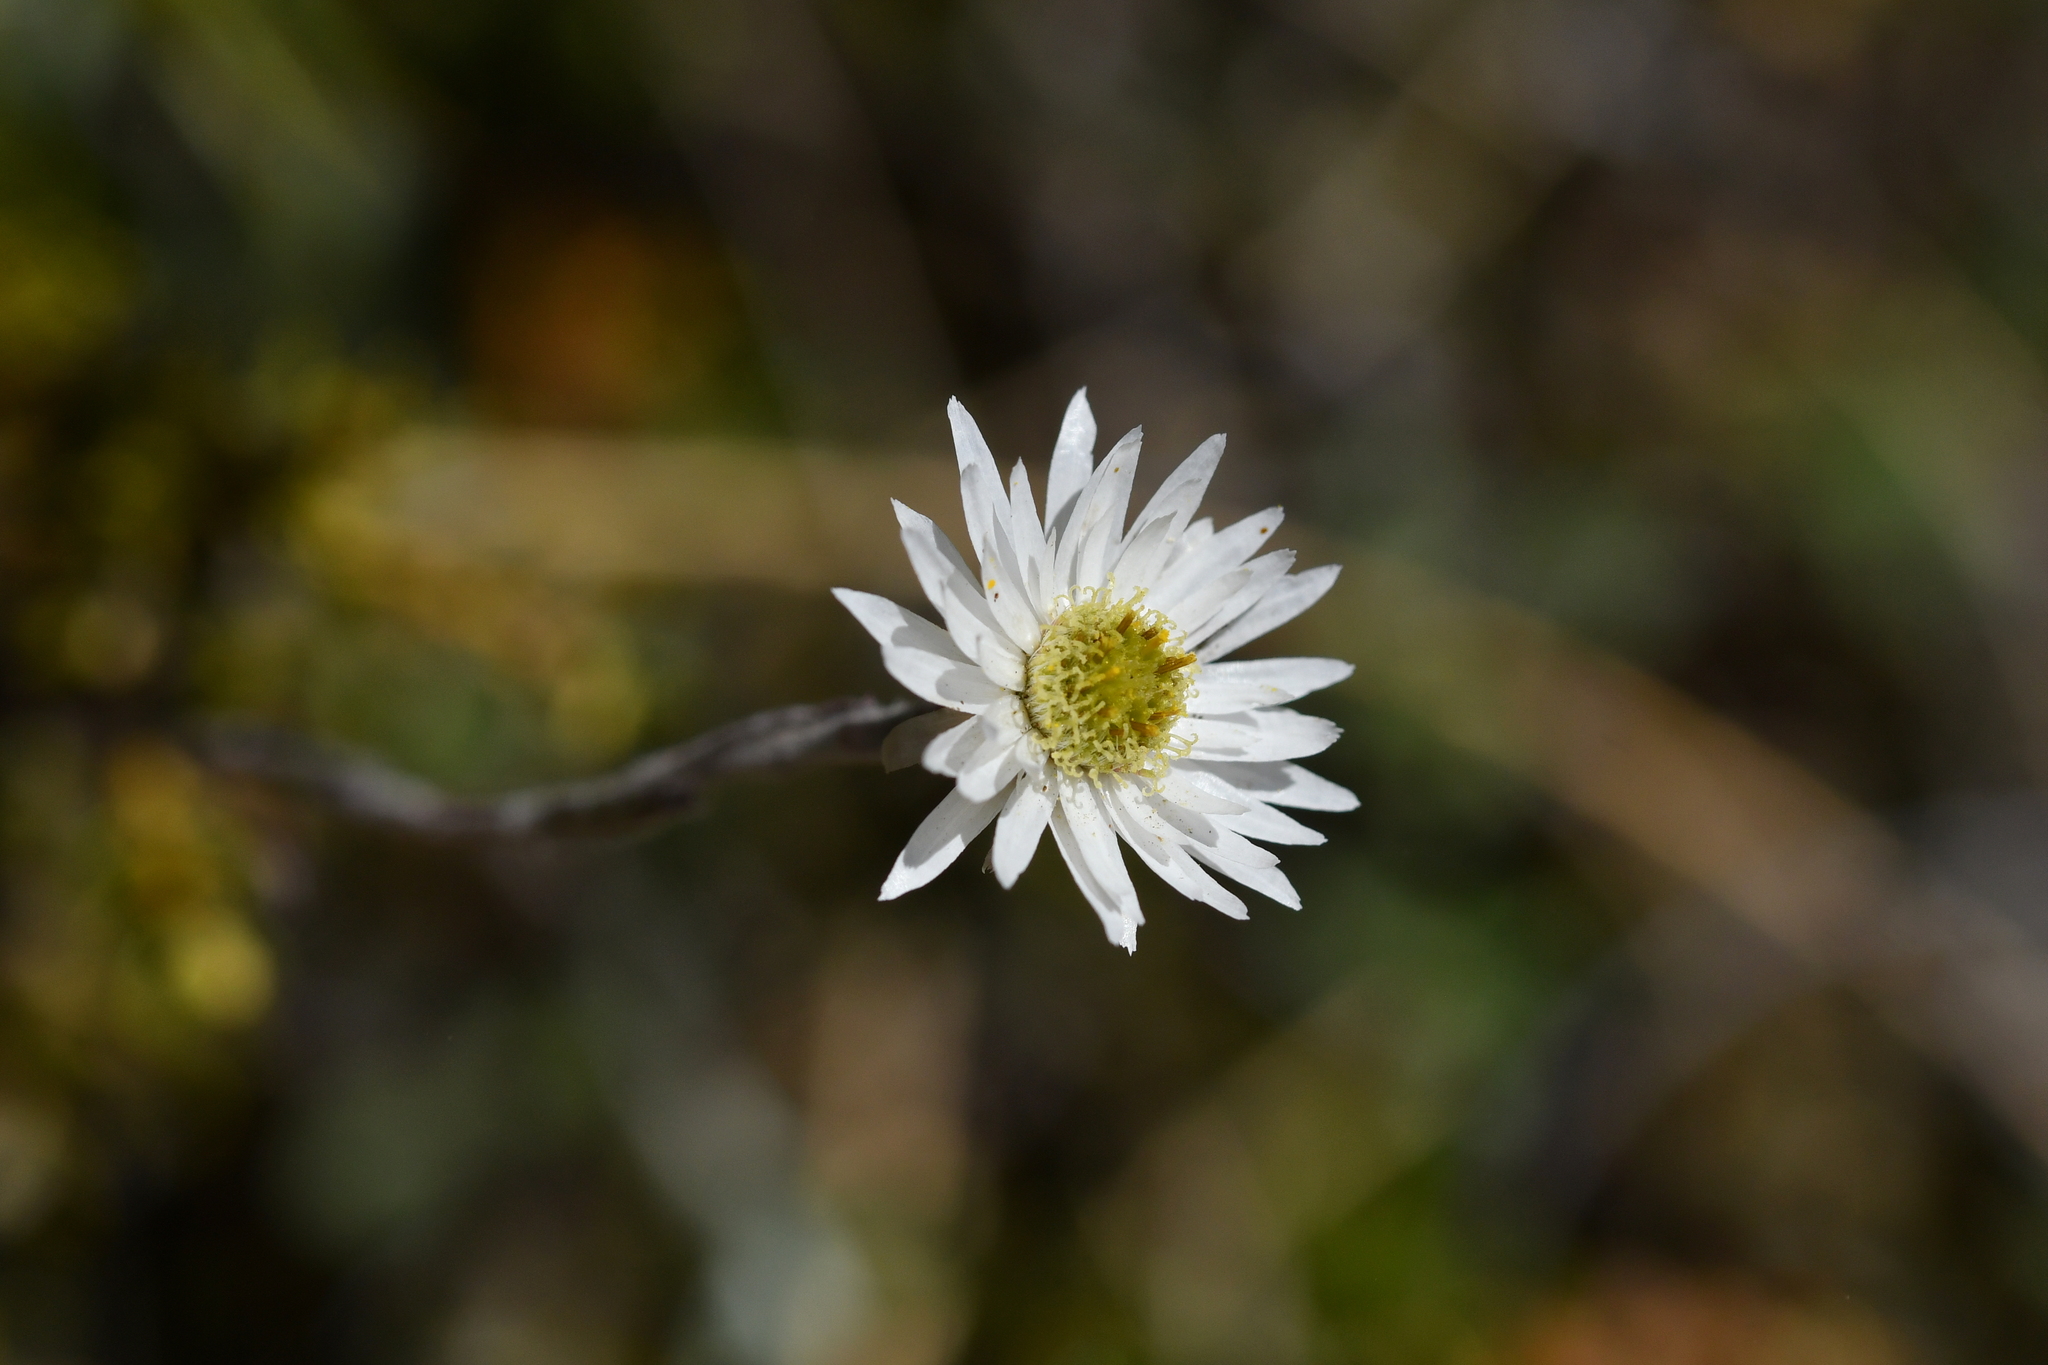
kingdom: Plantae
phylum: Tracheophyta
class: Magnoliopsida
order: Asterales
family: Asteraceae
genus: Anaphalioides
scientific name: Anaphalioides bellidioides
